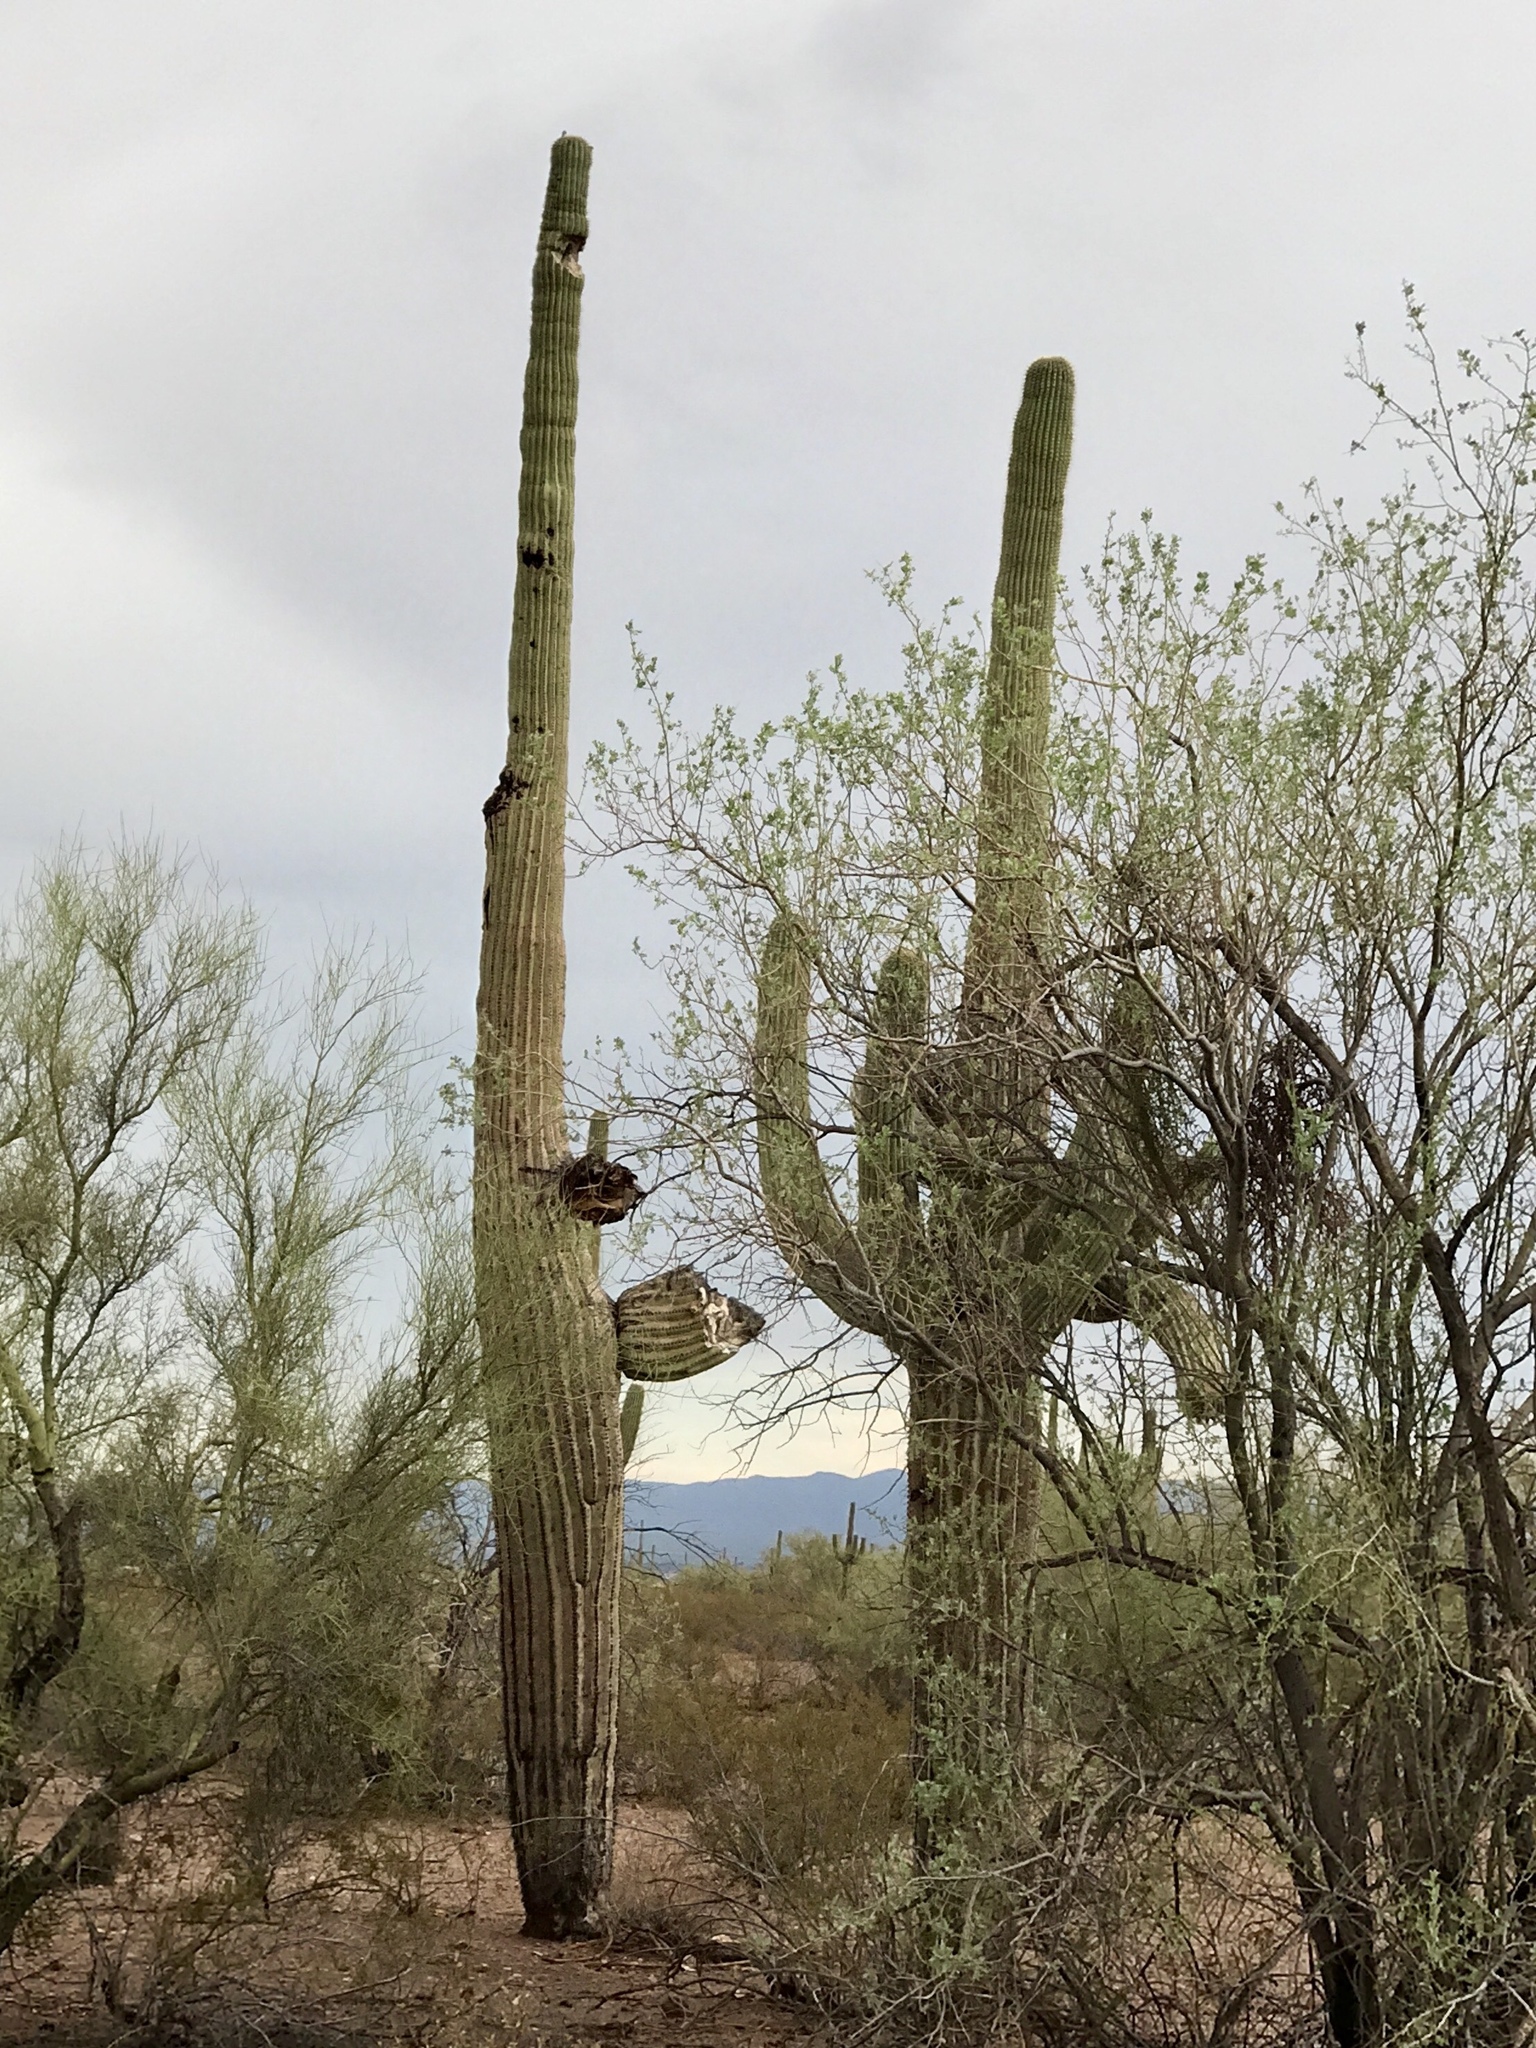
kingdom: Plantae
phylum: Tracheophyta
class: Magnoliopsida
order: Caryophyllales
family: Cactaceae
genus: Carnegiea
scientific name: Carnegiea gigantea
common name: Saguaro
